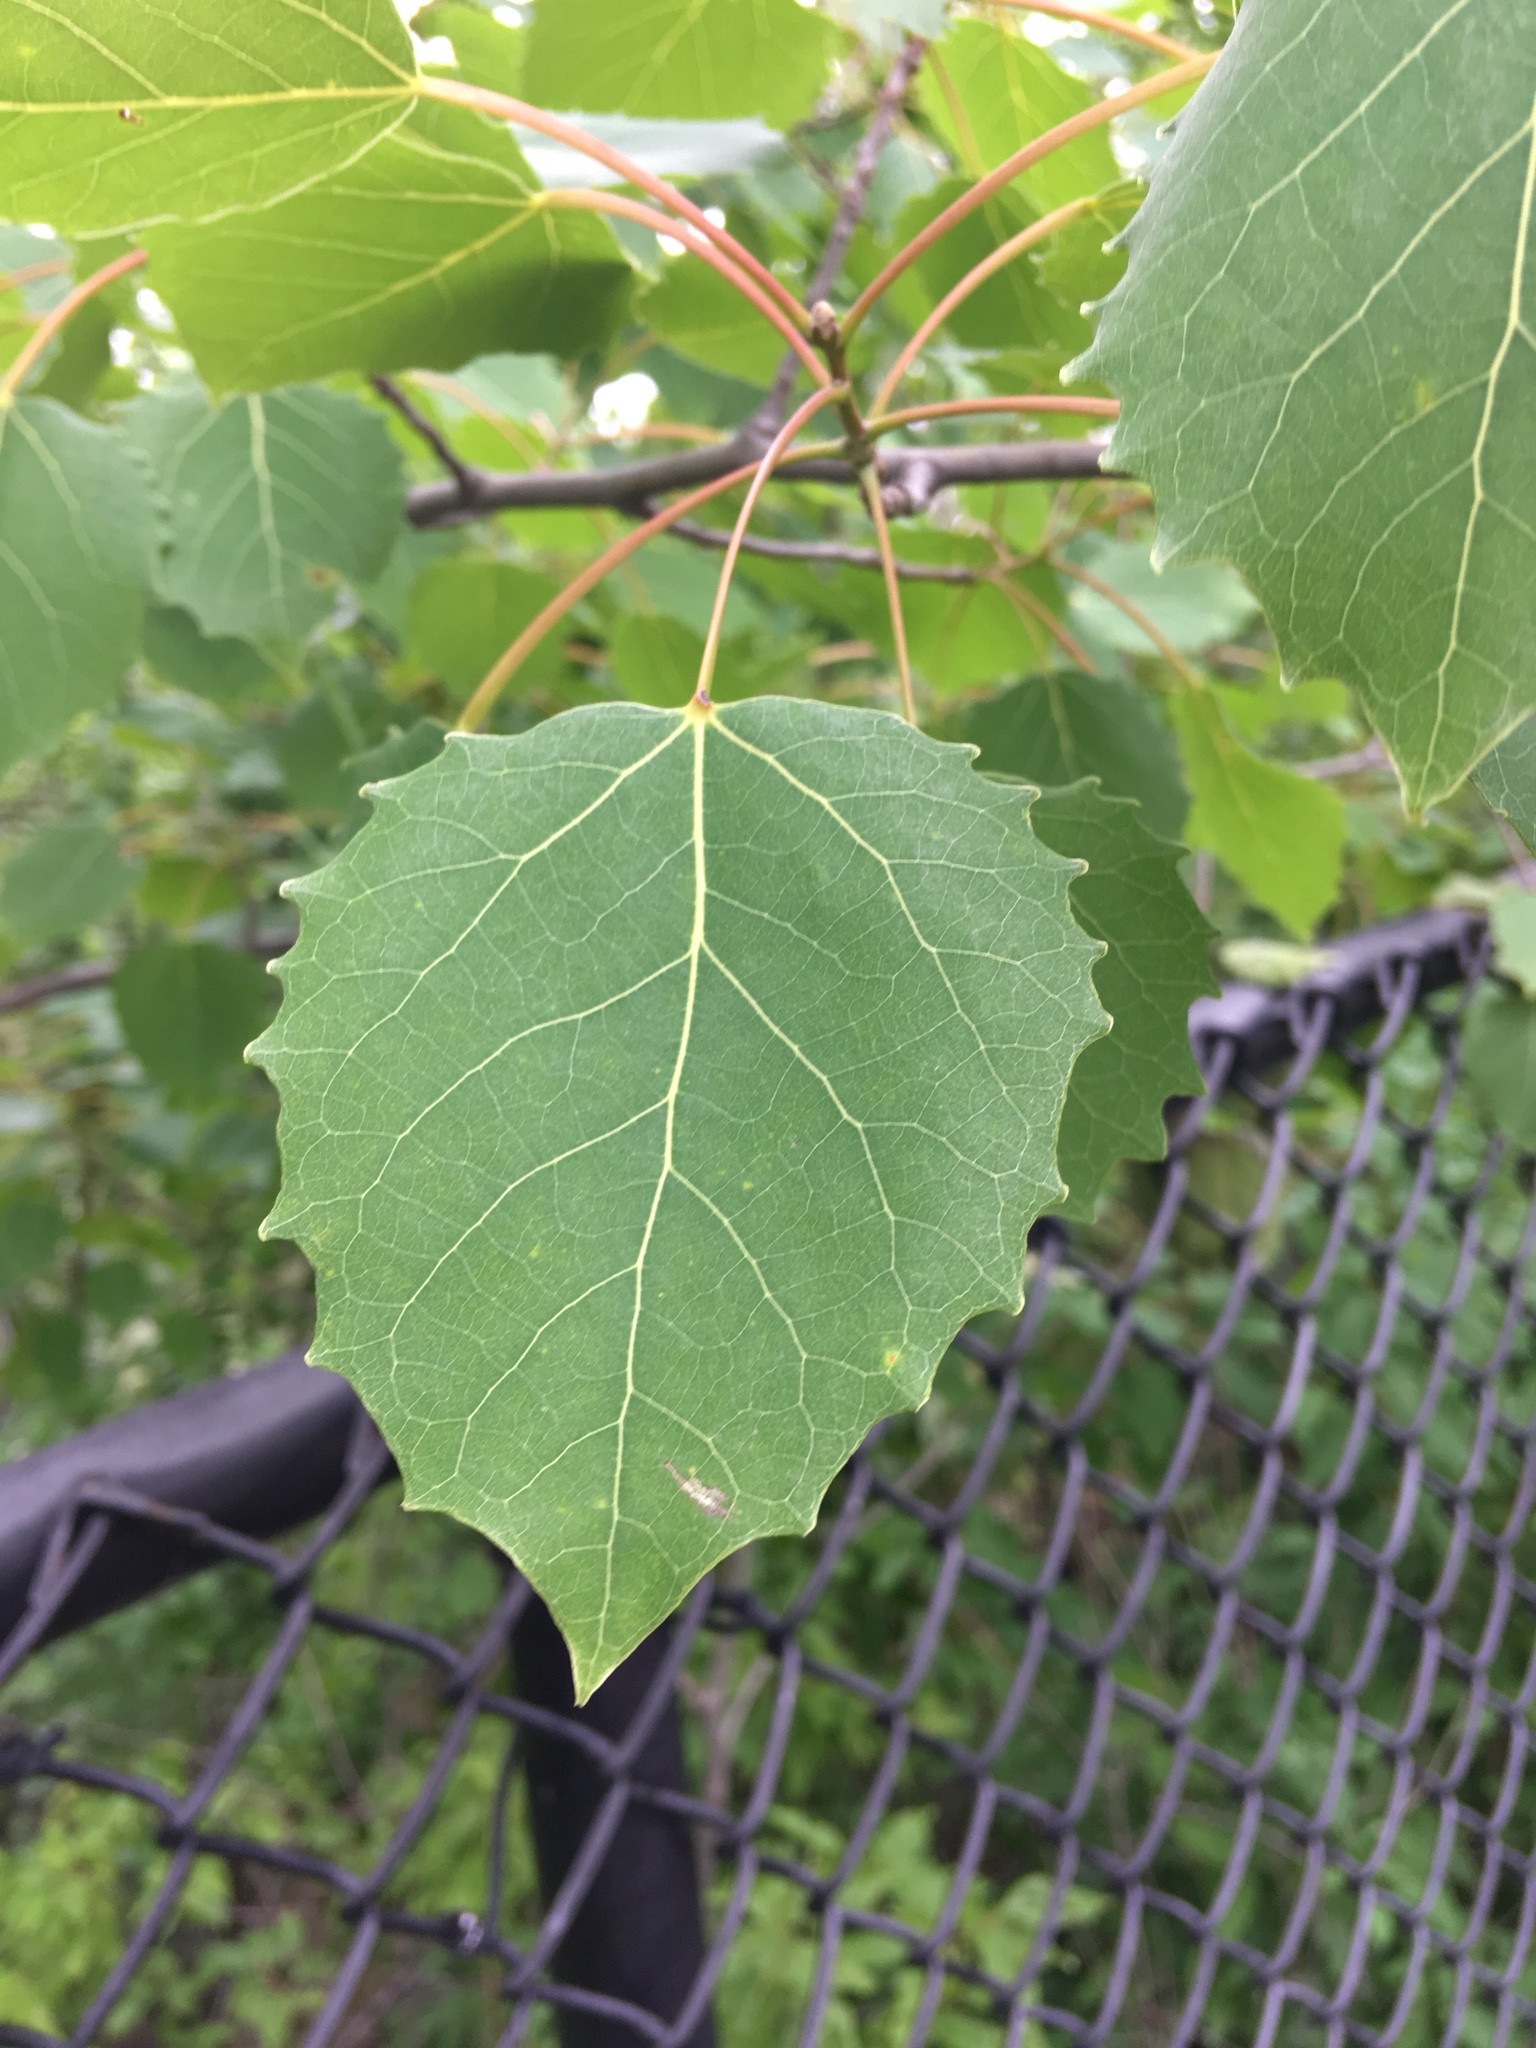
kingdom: Plantae
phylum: Tracheophyta
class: Magnoliopsida
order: Malpighiales
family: Salicaceae
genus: Populus
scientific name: Populus grandidentata
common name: Bigtooth aspen
